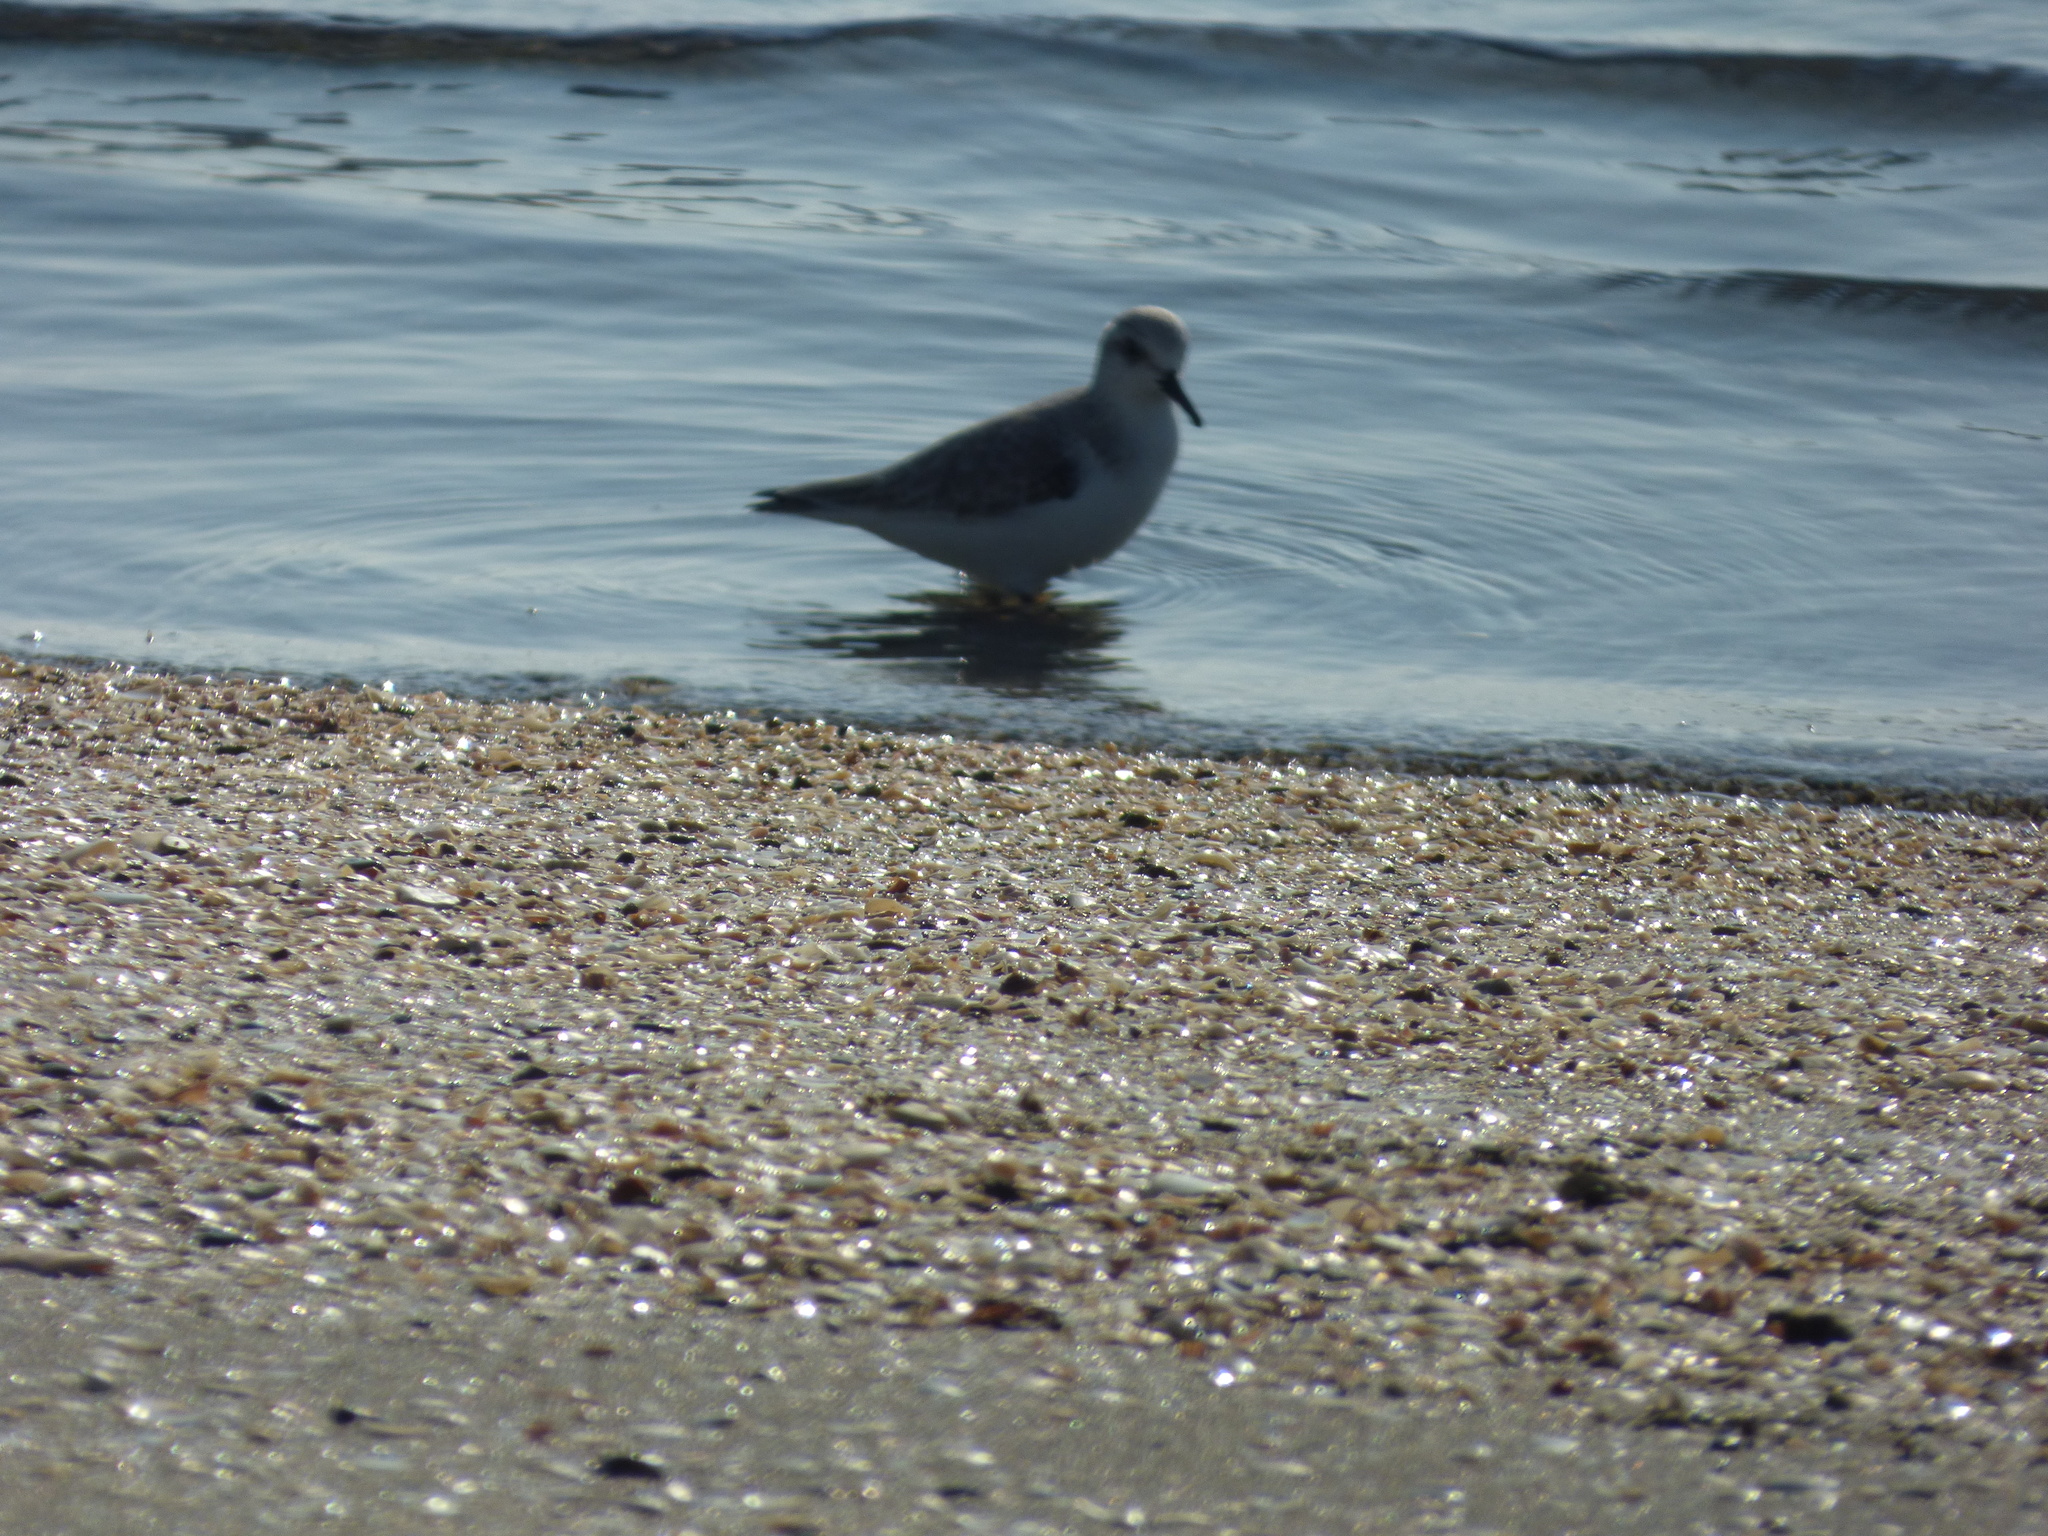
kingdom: Animalia
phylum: Chordata
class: Aves
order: Charadriiformes
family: Scolopacidae
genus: Calidris
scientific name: Calidris alba
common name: Sanderling
